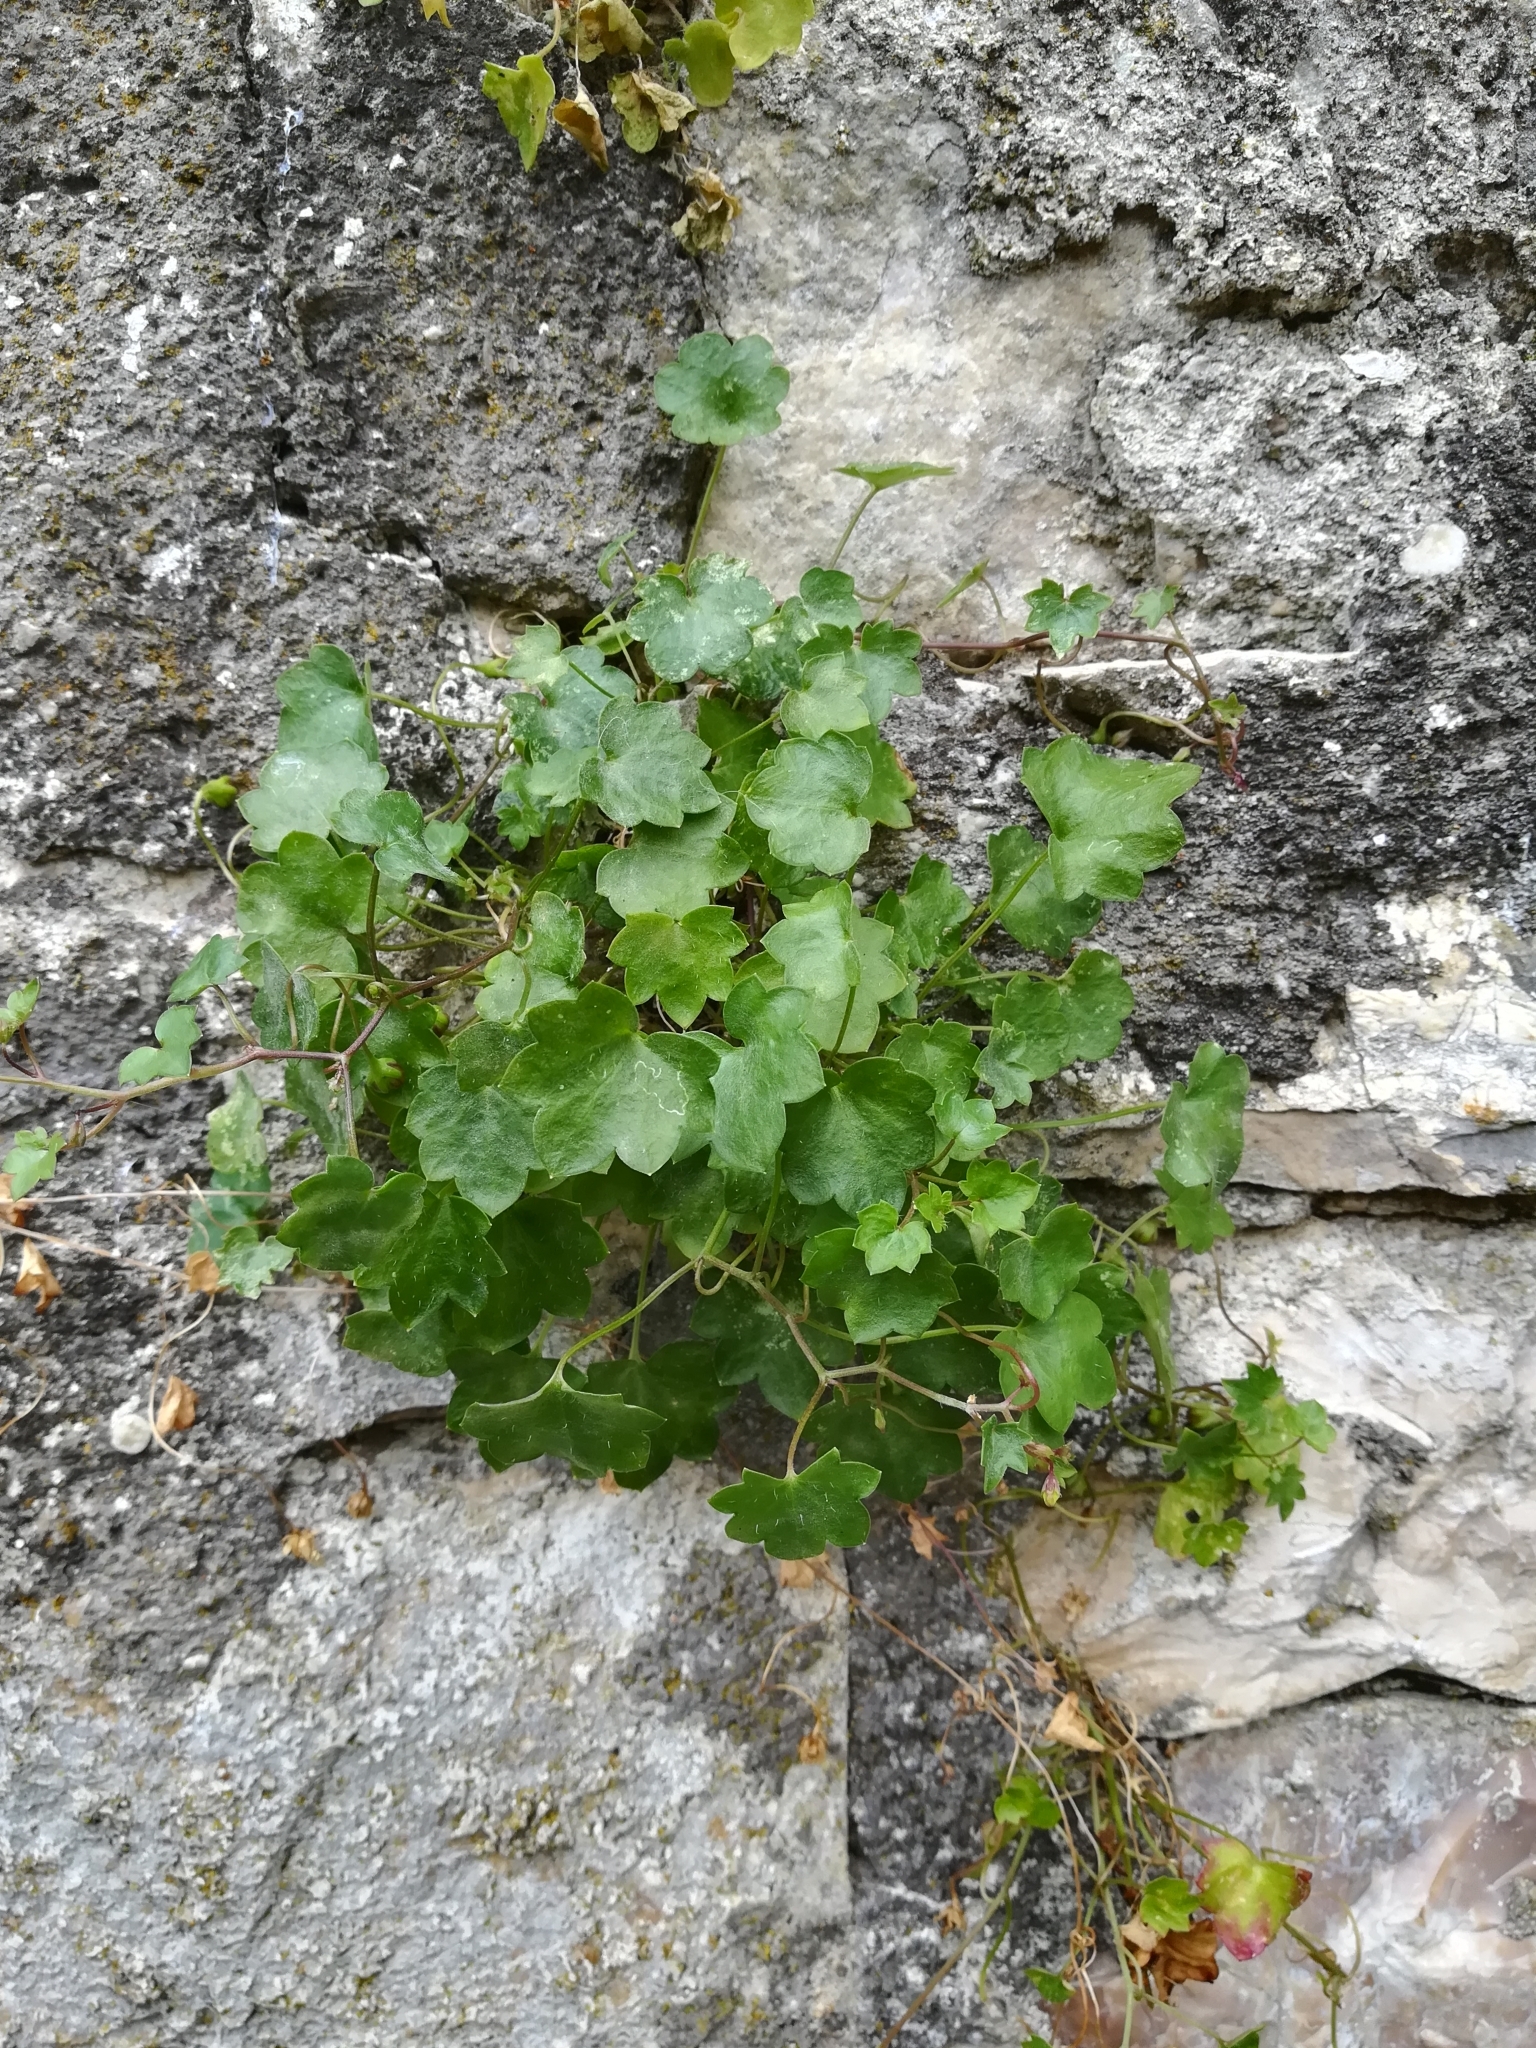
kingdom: Plantae
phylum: Tracheophyta
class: Magnoliopsida
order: Lamiales
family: Plantaginaceae
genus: Cymbalaria
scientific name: Cymbalaria muralis
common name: Ivy-leaved toadflax
